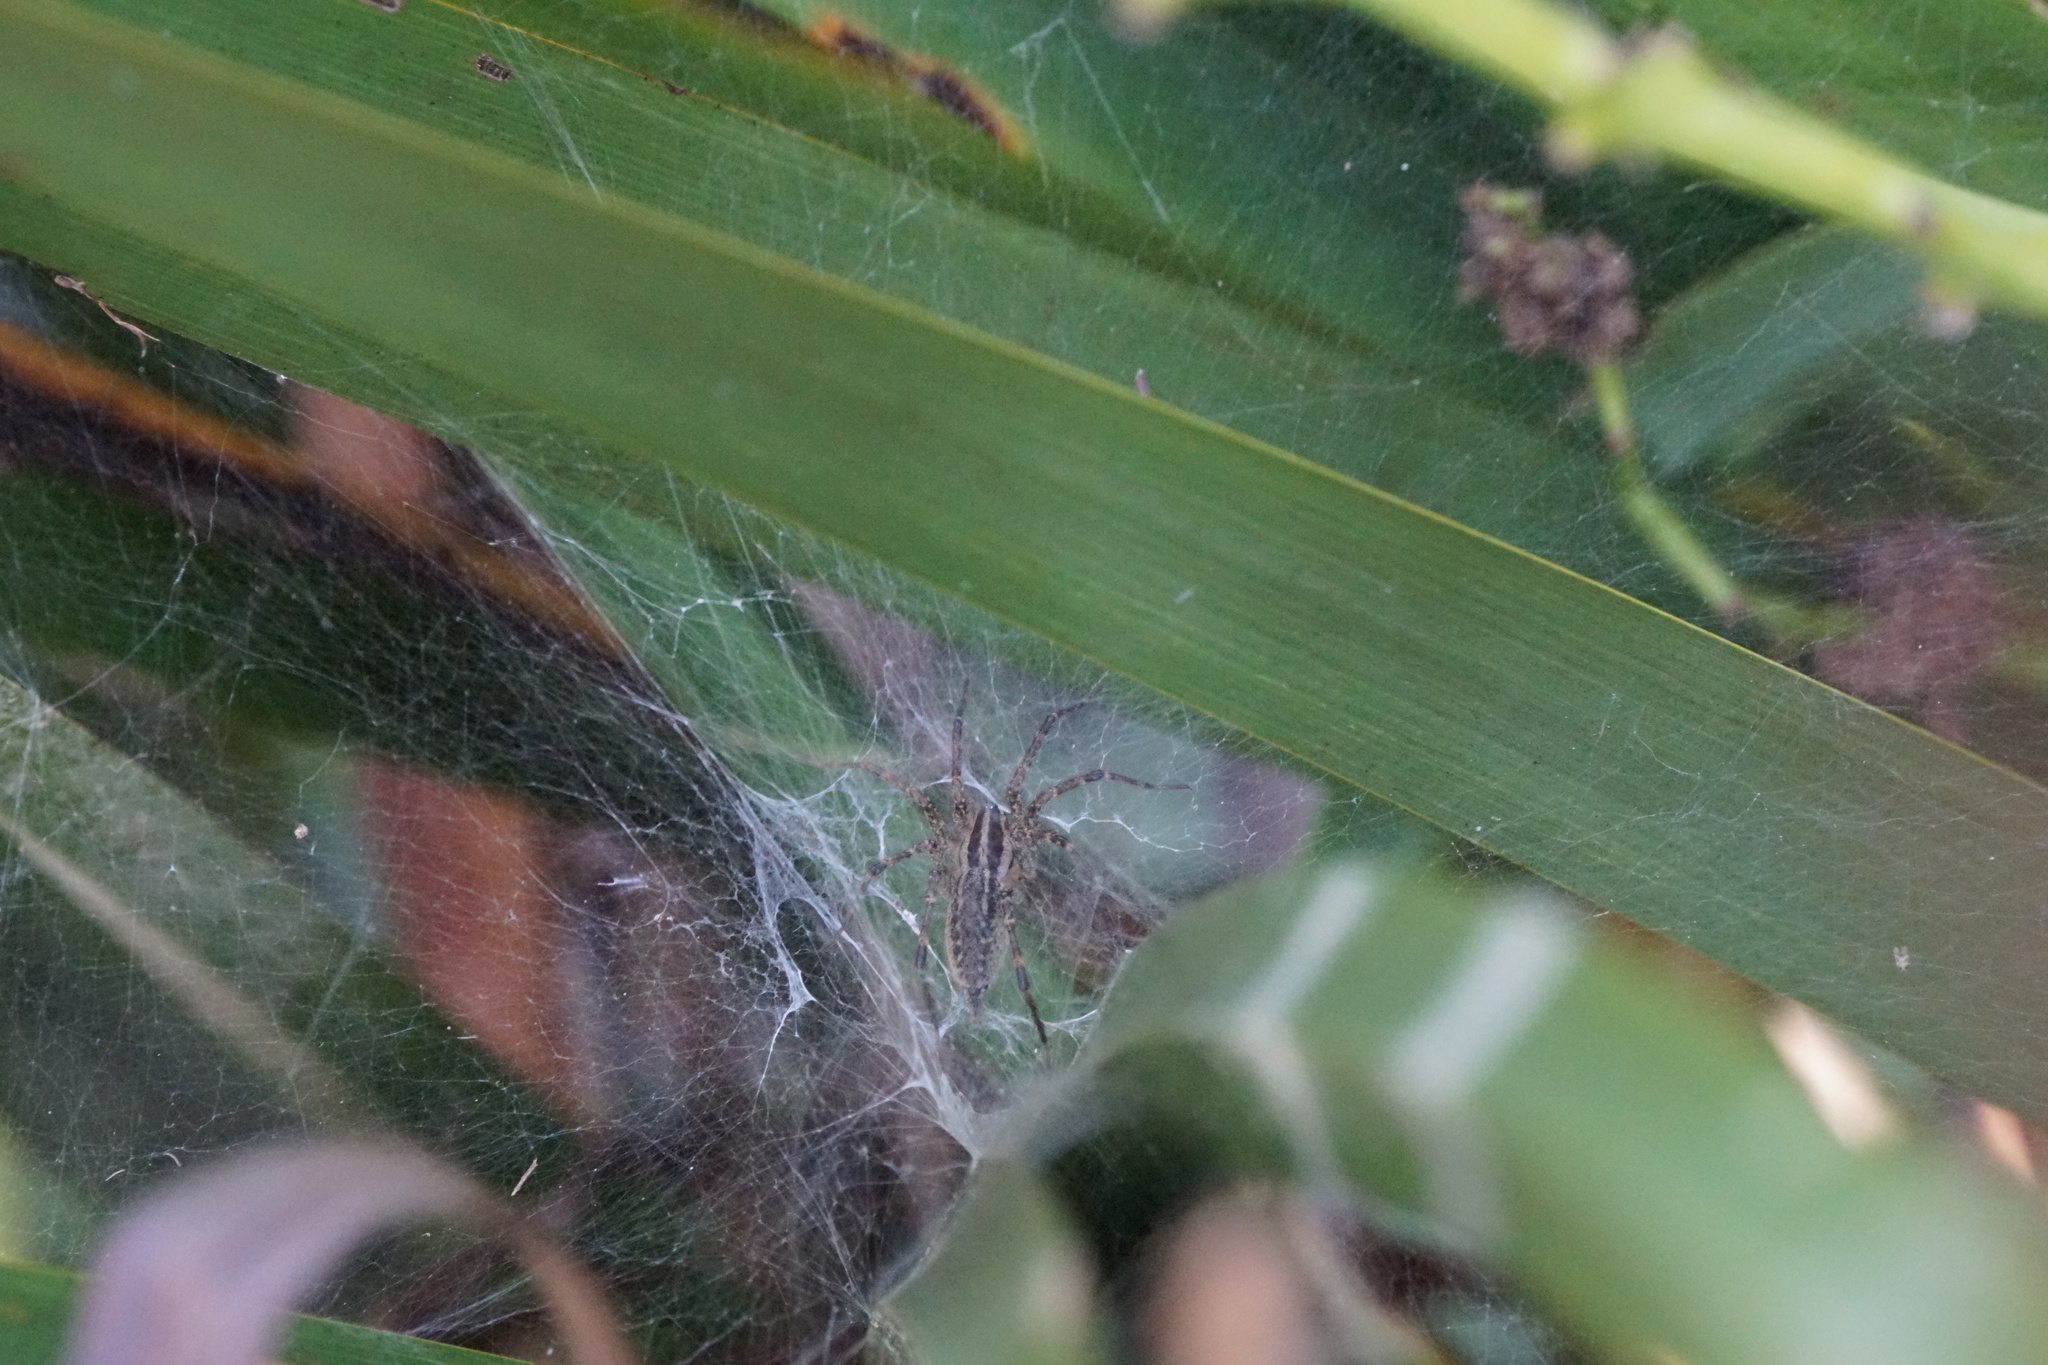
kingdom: Animalia
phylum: Arthropoda
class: Arachnida
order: Araneae
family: Agelenidae
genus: Agelenopsis
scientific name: Agelenopsis
